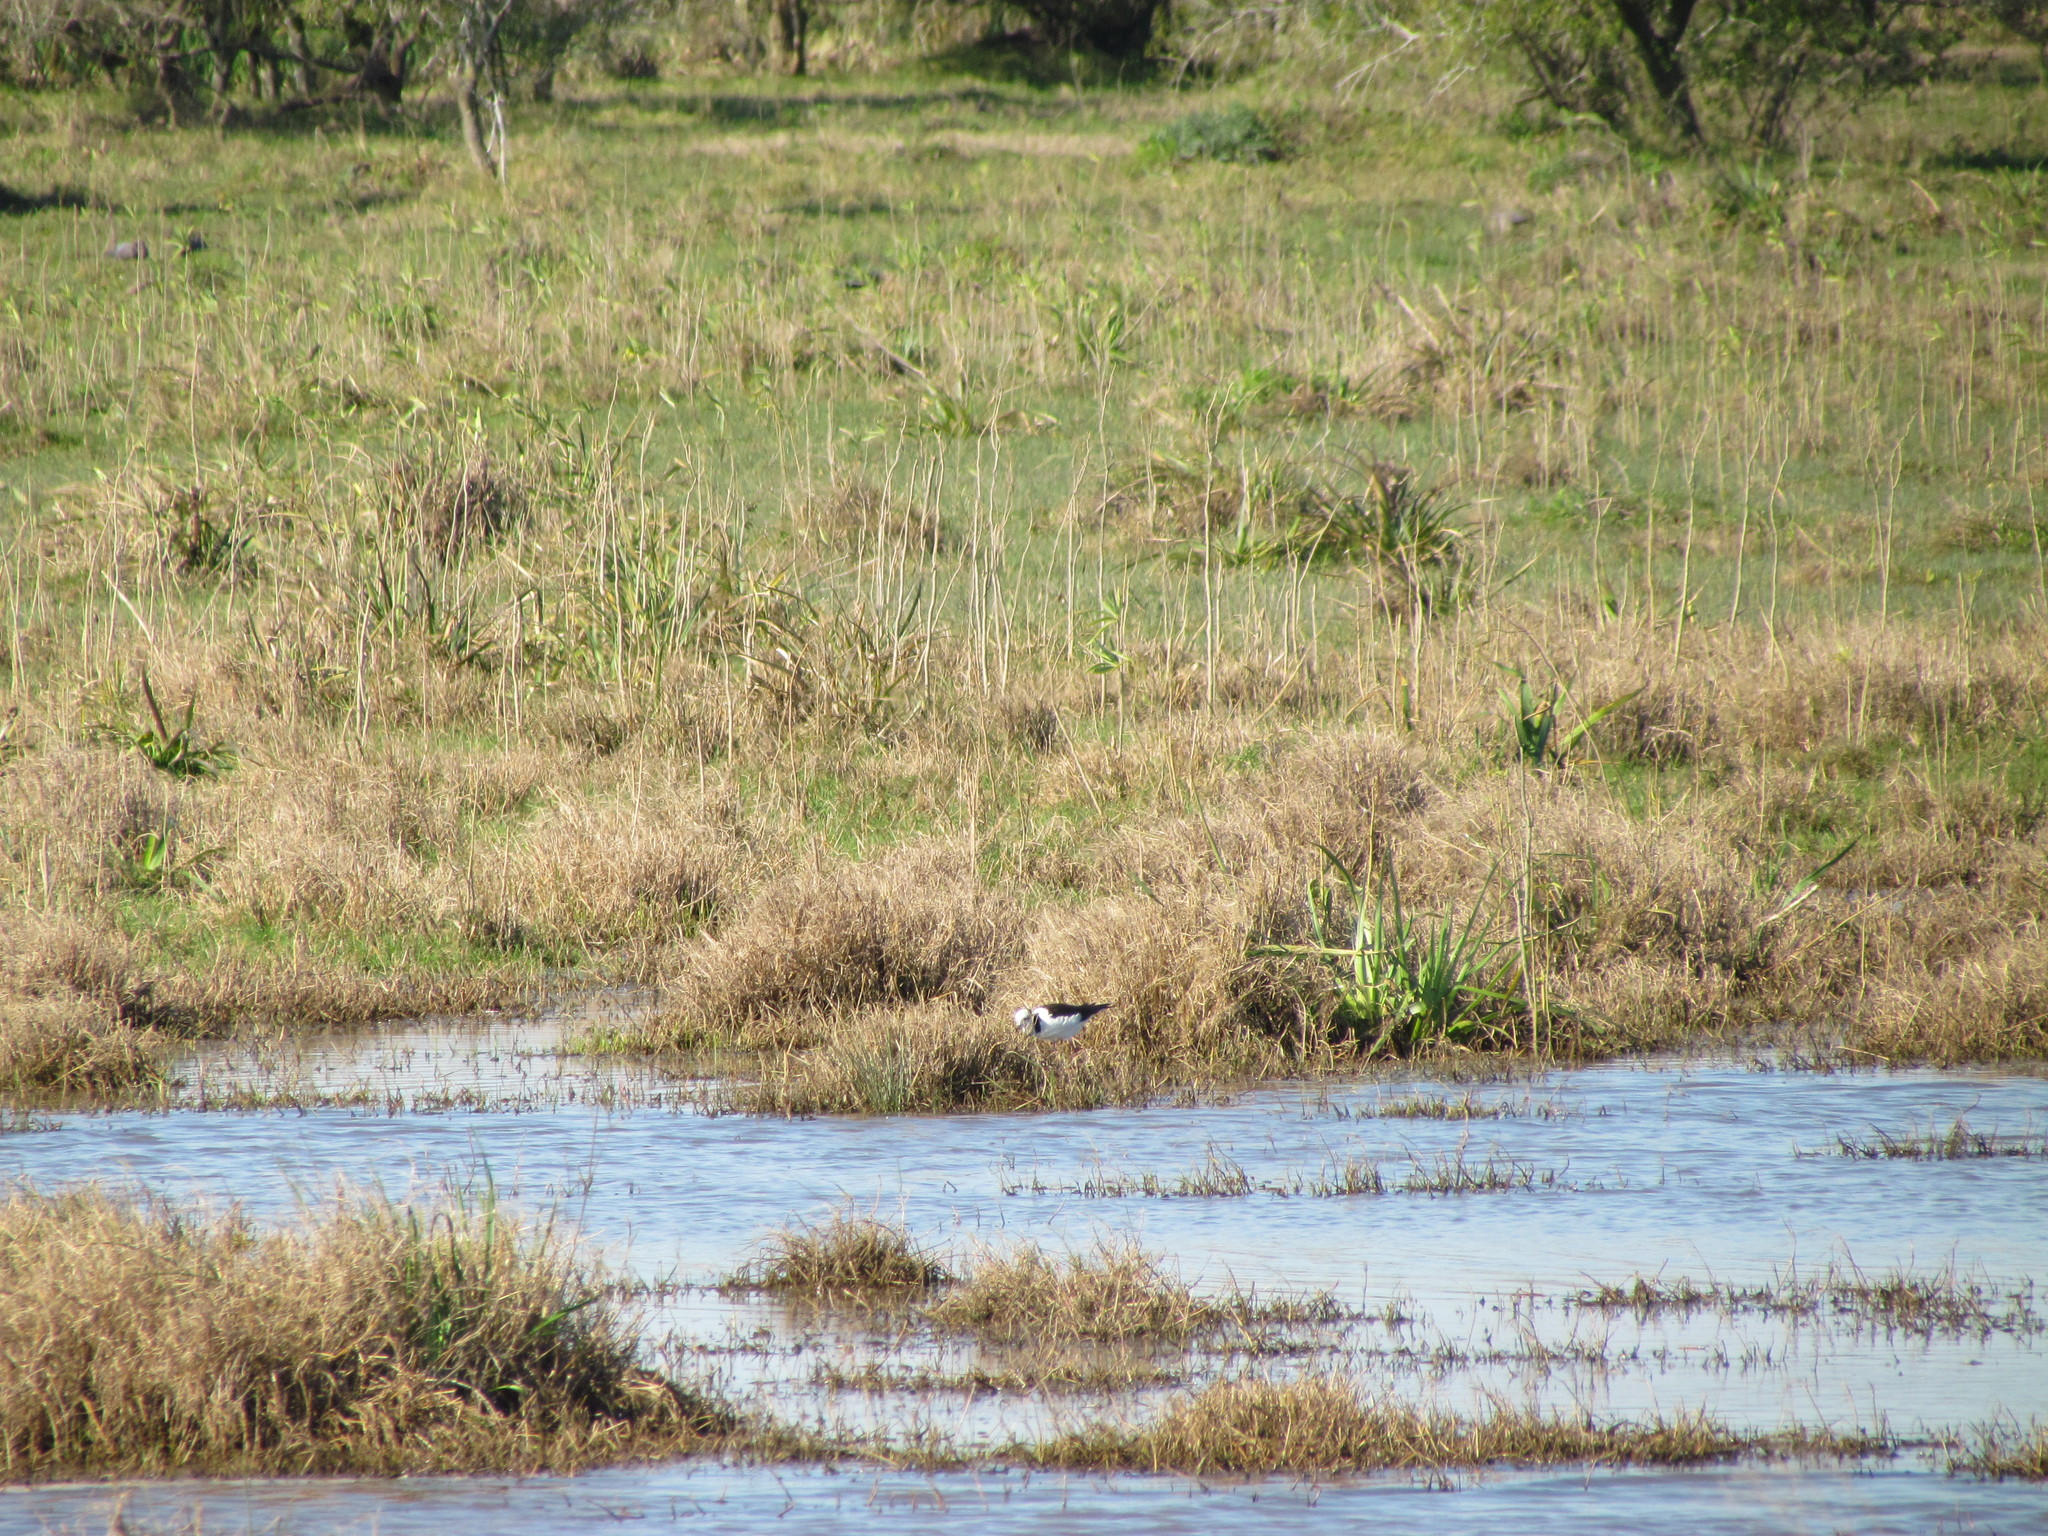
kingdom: Animalia
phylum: Chordata
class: Aves
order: Charadriiformes
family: Recurvirostridae
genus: Himantopus
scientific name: Himantopus mexicanus
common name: Black-necked stilt
